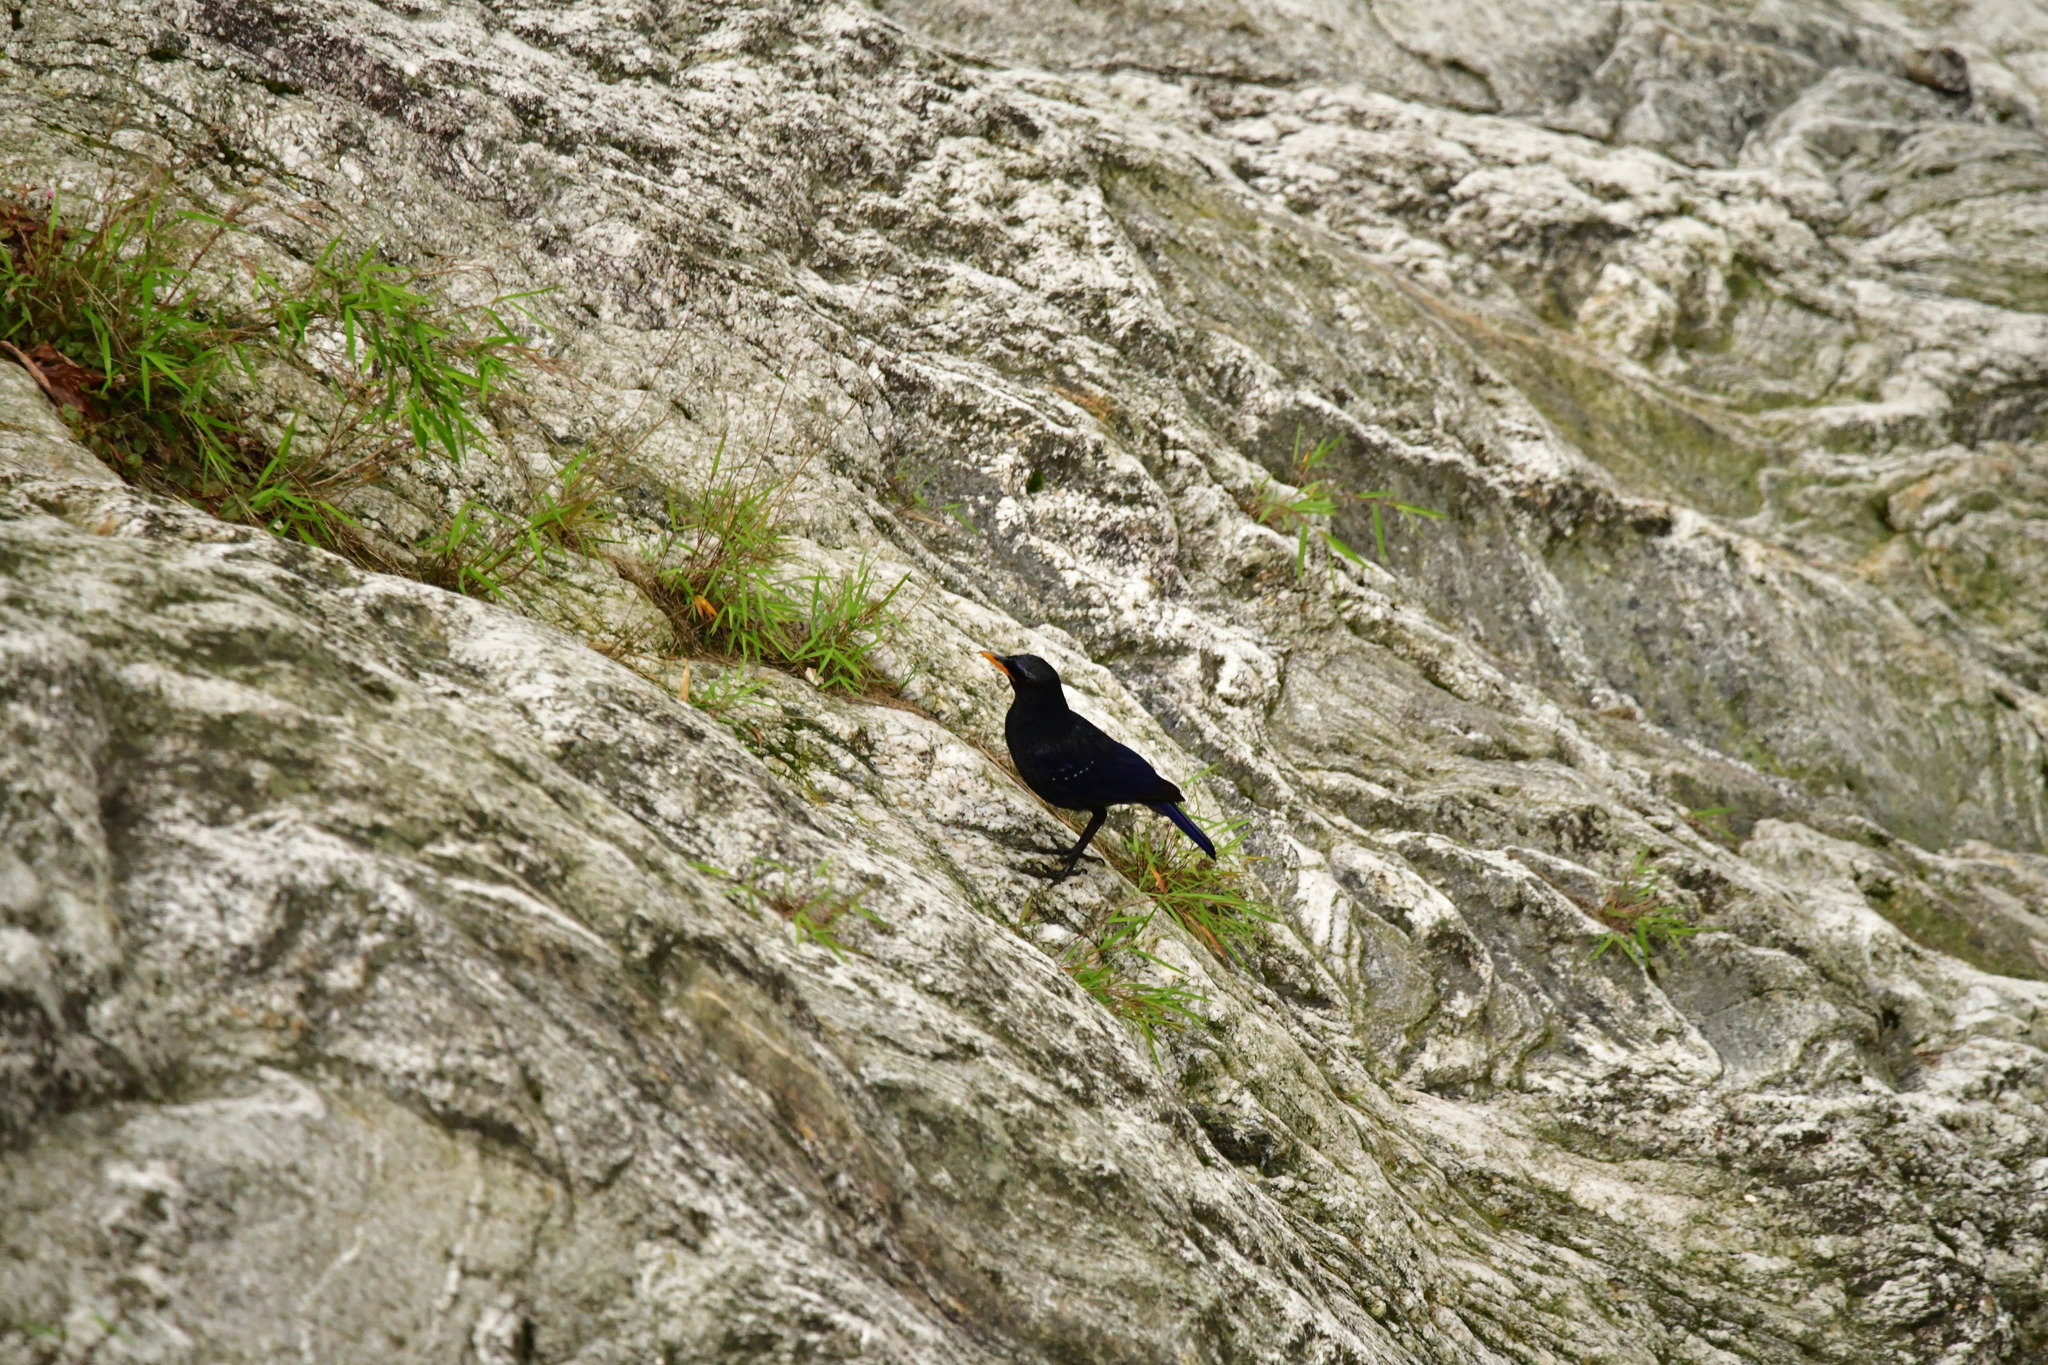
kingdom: Animalia
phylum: Chordata
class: Aves
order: Passeriformes
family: Muscicapidae
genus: Myophonus
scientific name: Myophonus caeruleus
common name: Blue whistling-thrush
